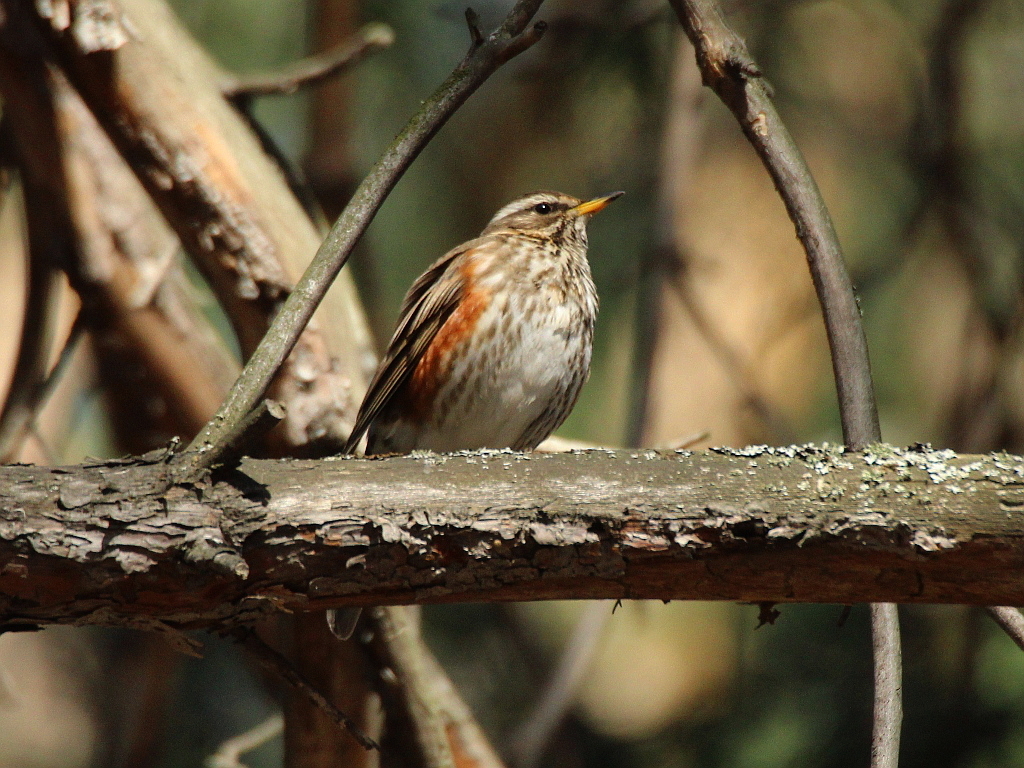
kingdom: Animalia
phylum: Chordata
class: Aves
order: Passeriformes
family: Turdidae
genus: Turdus
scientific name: Turdus iliacus
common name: Redwing
